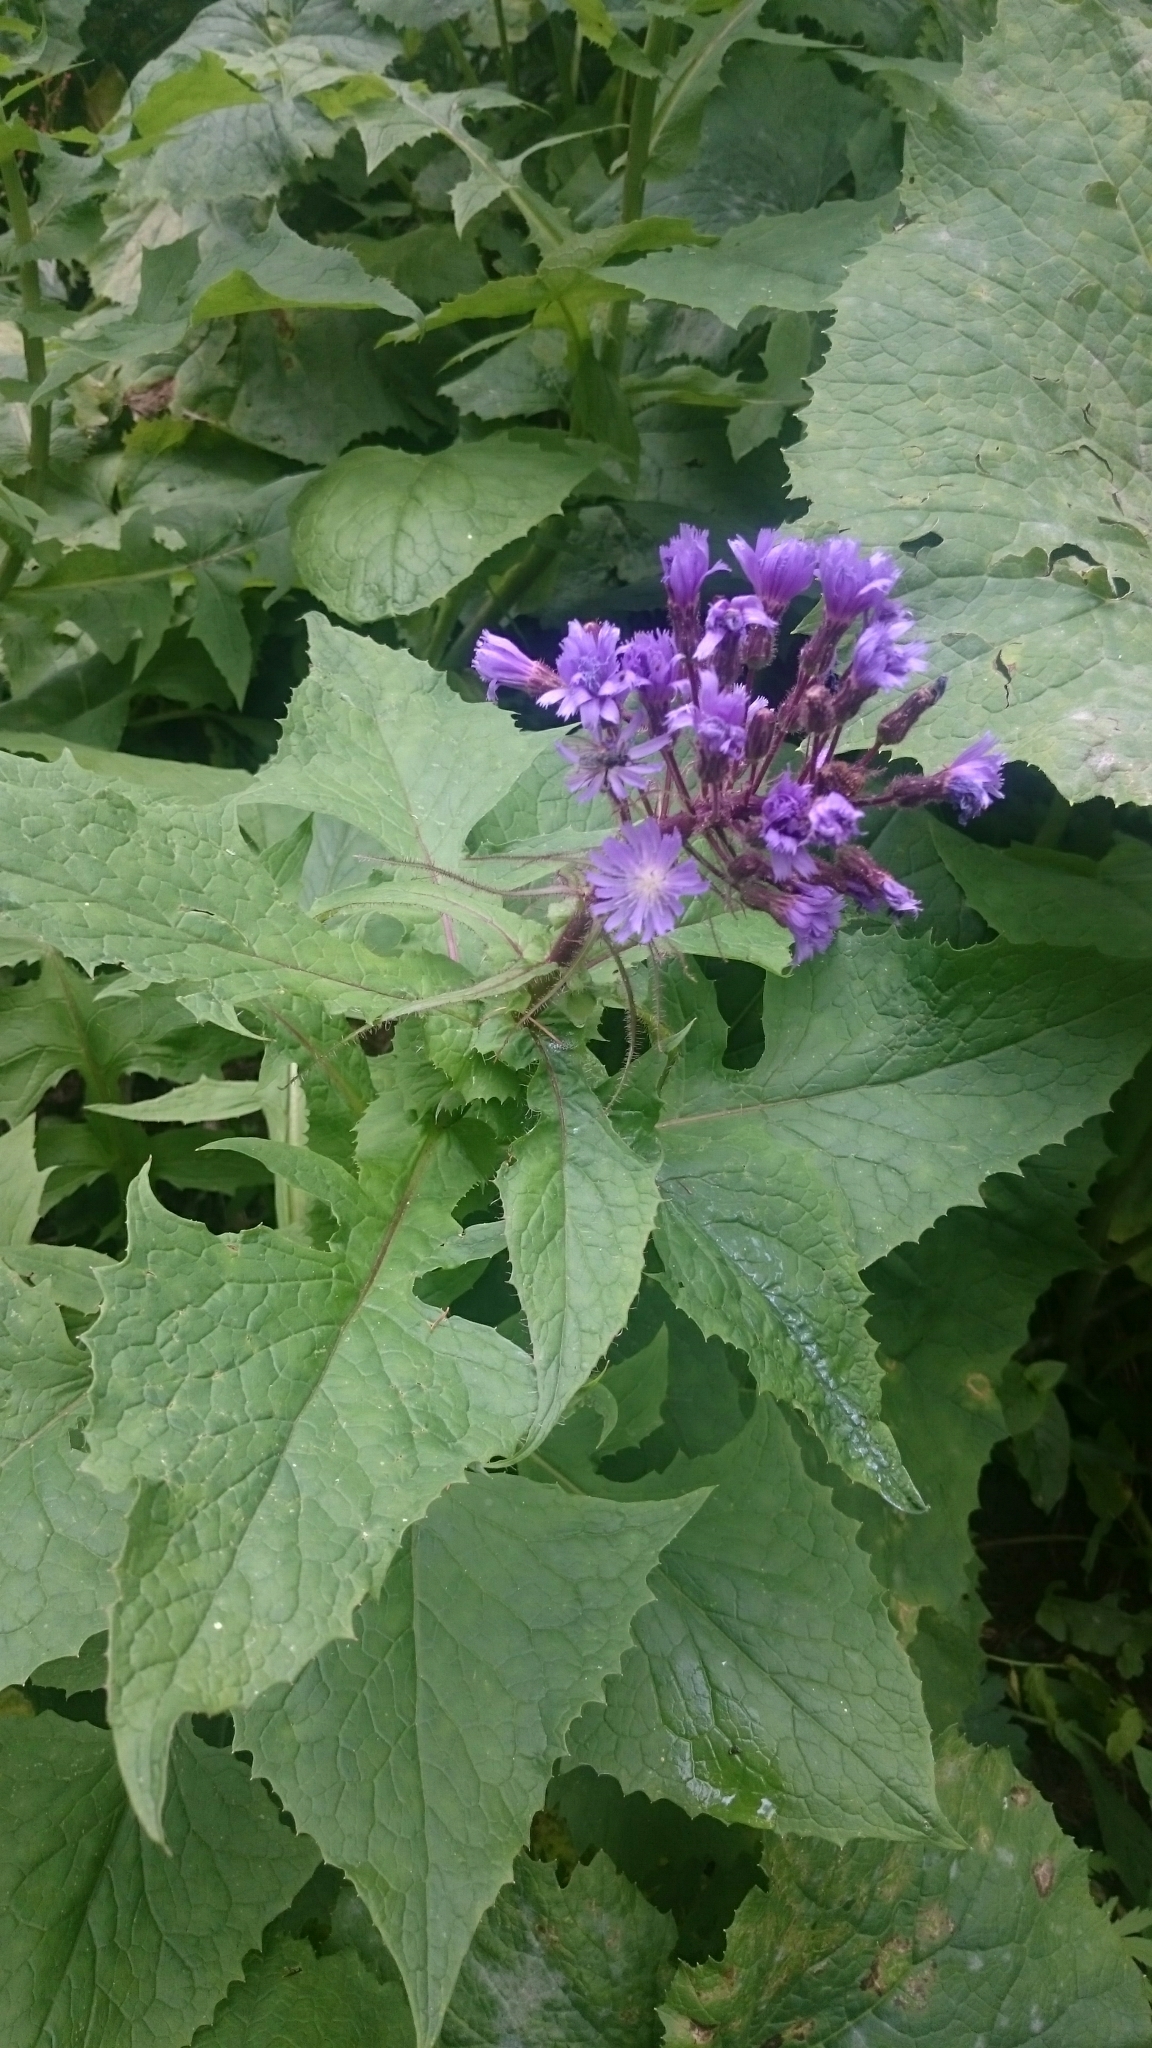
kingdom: Plantae
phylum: Tracheophyta
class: Magnoliopsida
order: Asterales
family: Asteraceae
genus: Cicerbita
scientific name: Cicerbita alpina
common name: Alpine blue-sow-thistle
